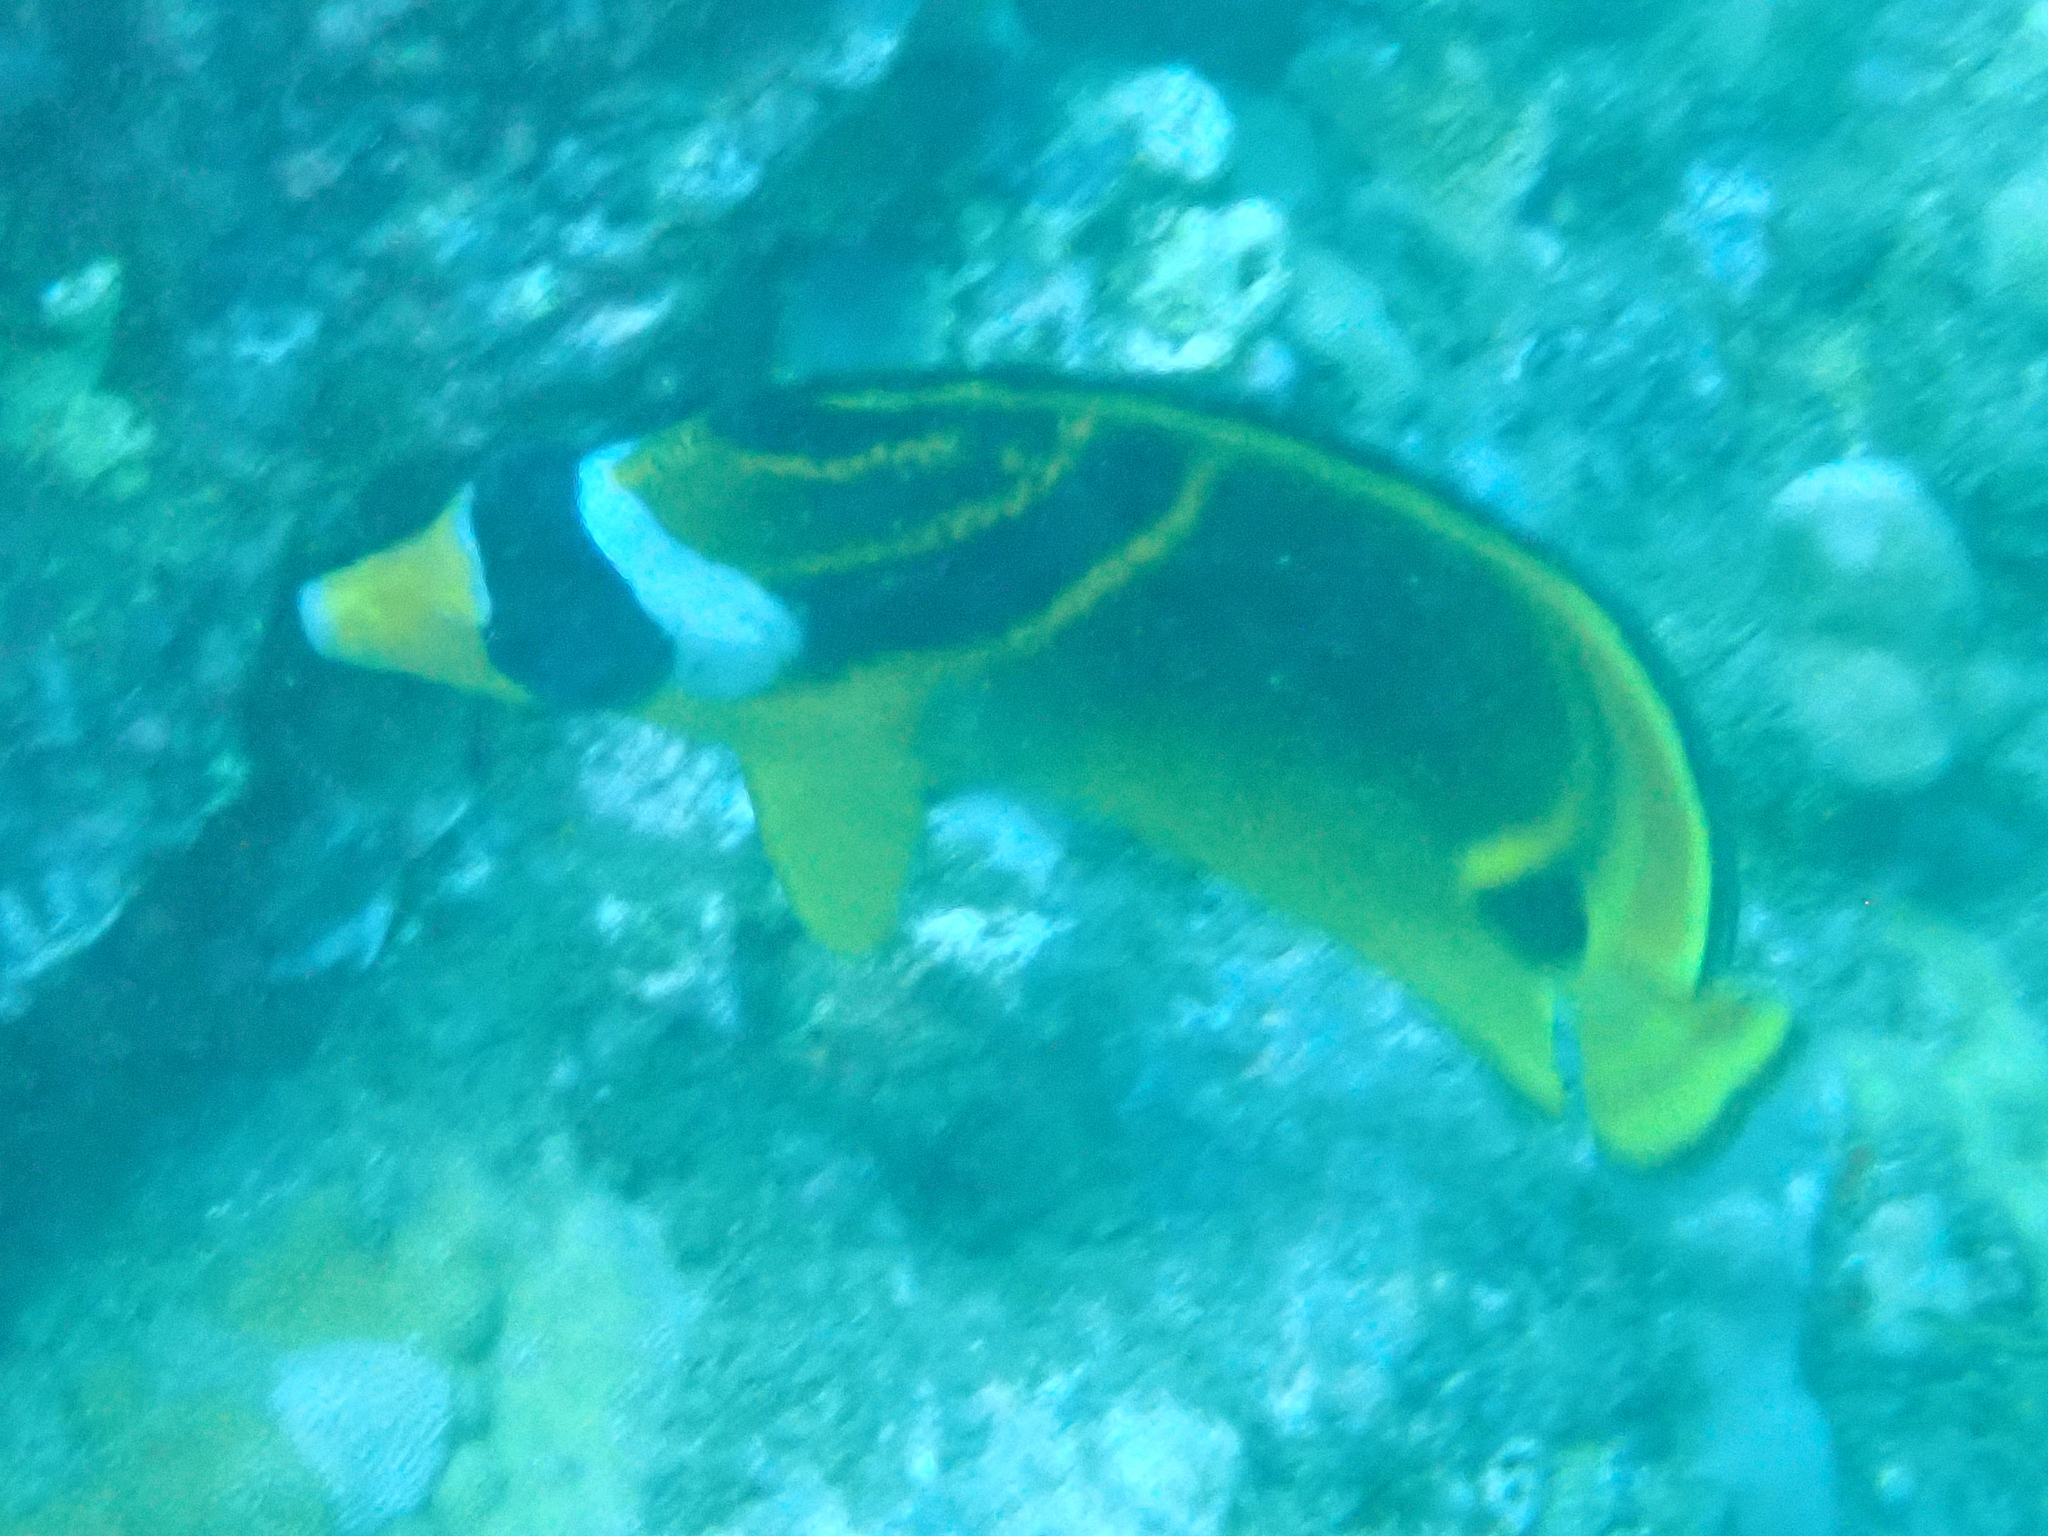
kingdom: Animalia
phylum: Chordata
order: Perciformes
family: Chaetodontidae
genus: Chaetodon
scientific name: Chaetodon lunula
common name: Raccoon butterflyfish
